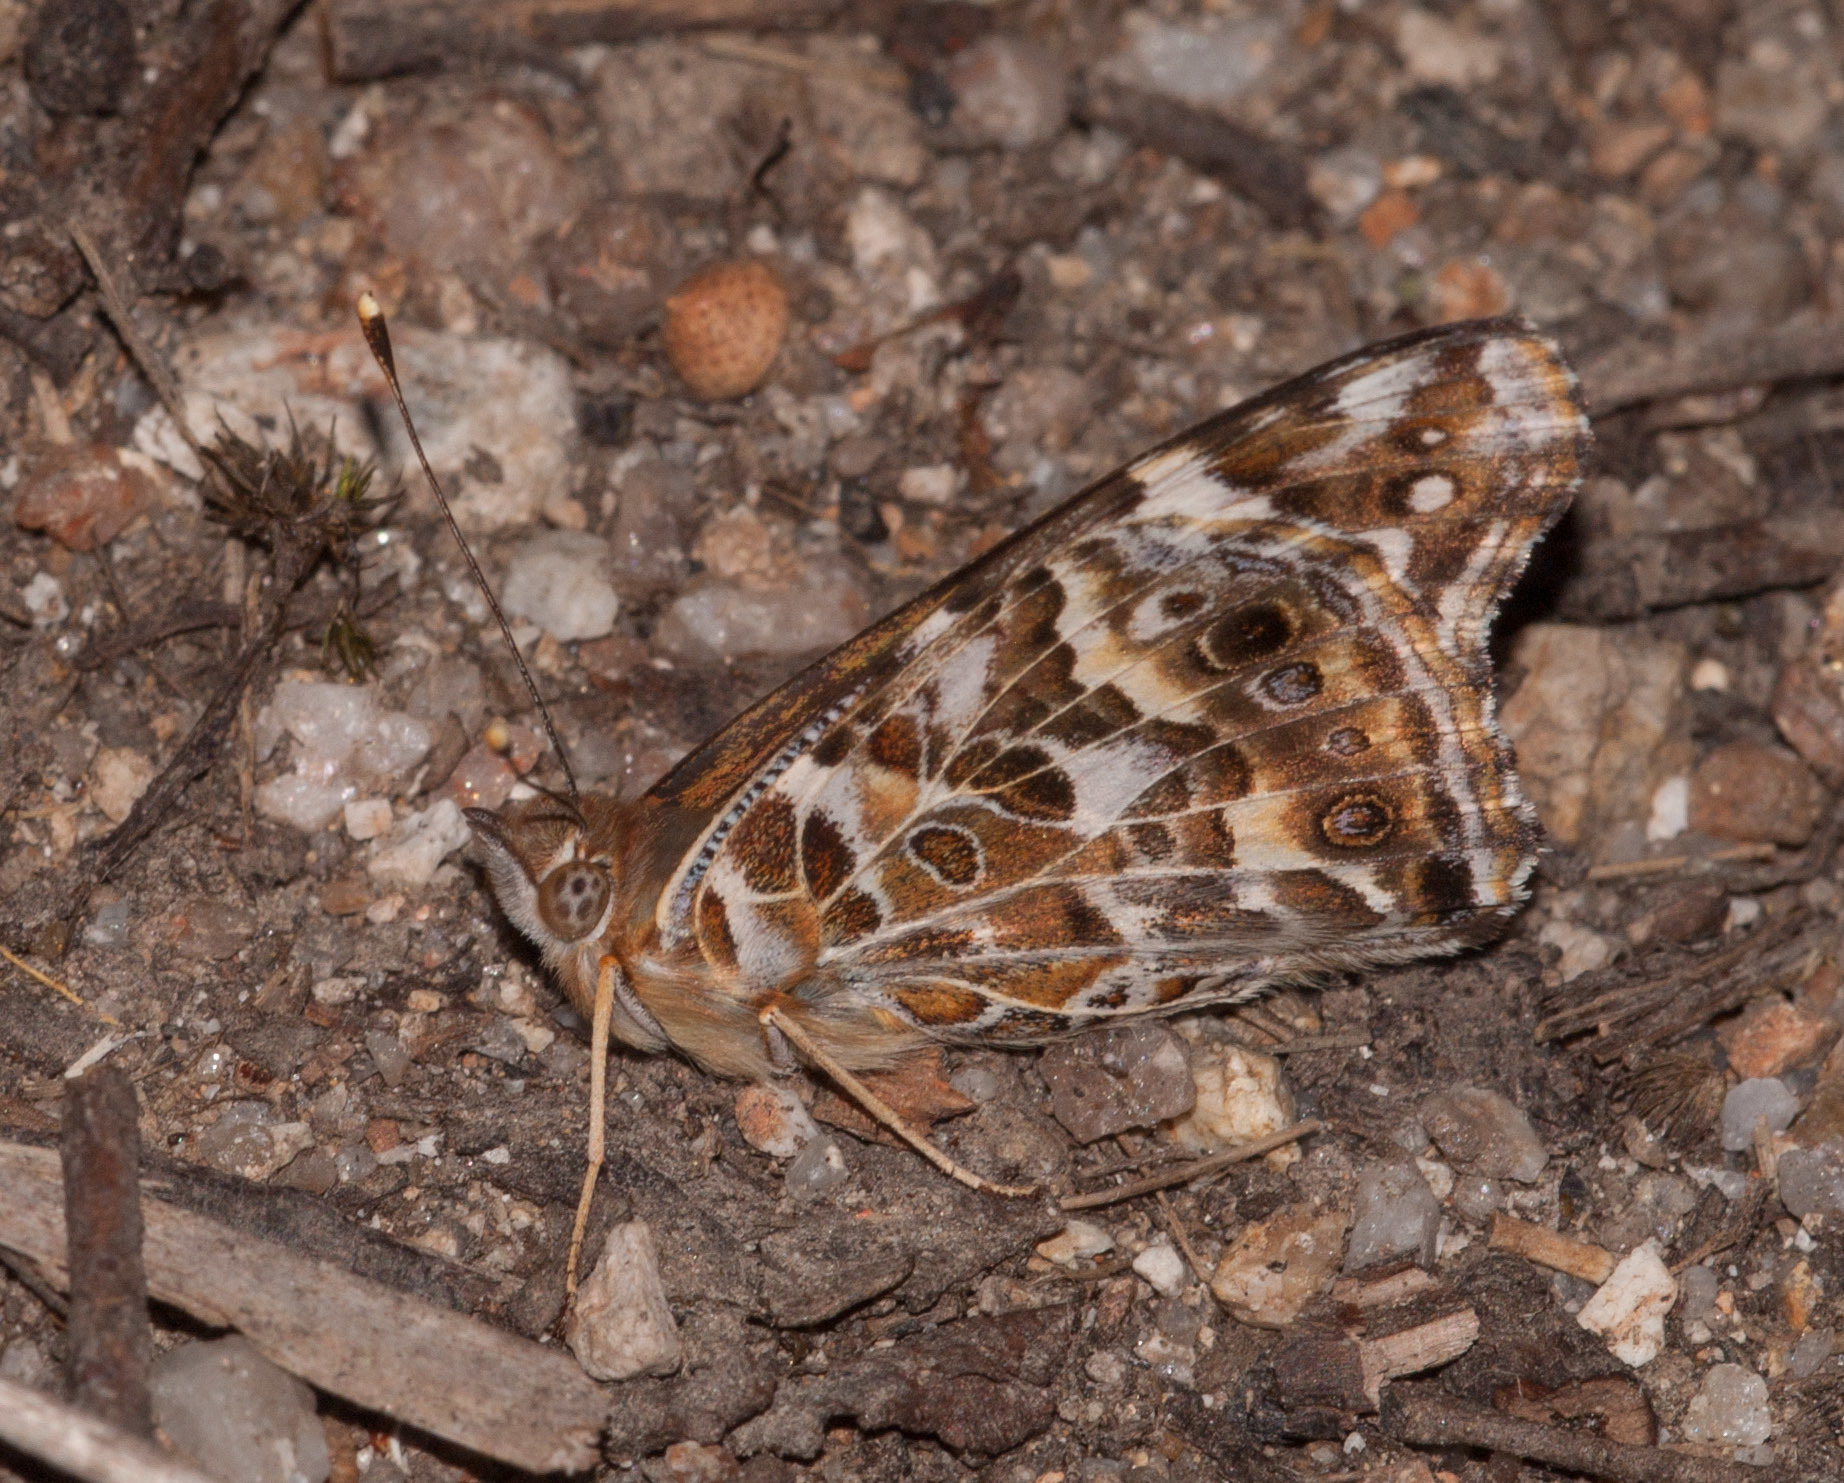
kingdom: Animalia
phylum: Arthropoda
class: Insecta
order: Lepidoptera
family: Nymphalidae
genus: Vanessa
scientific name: Vanessa kershawi
